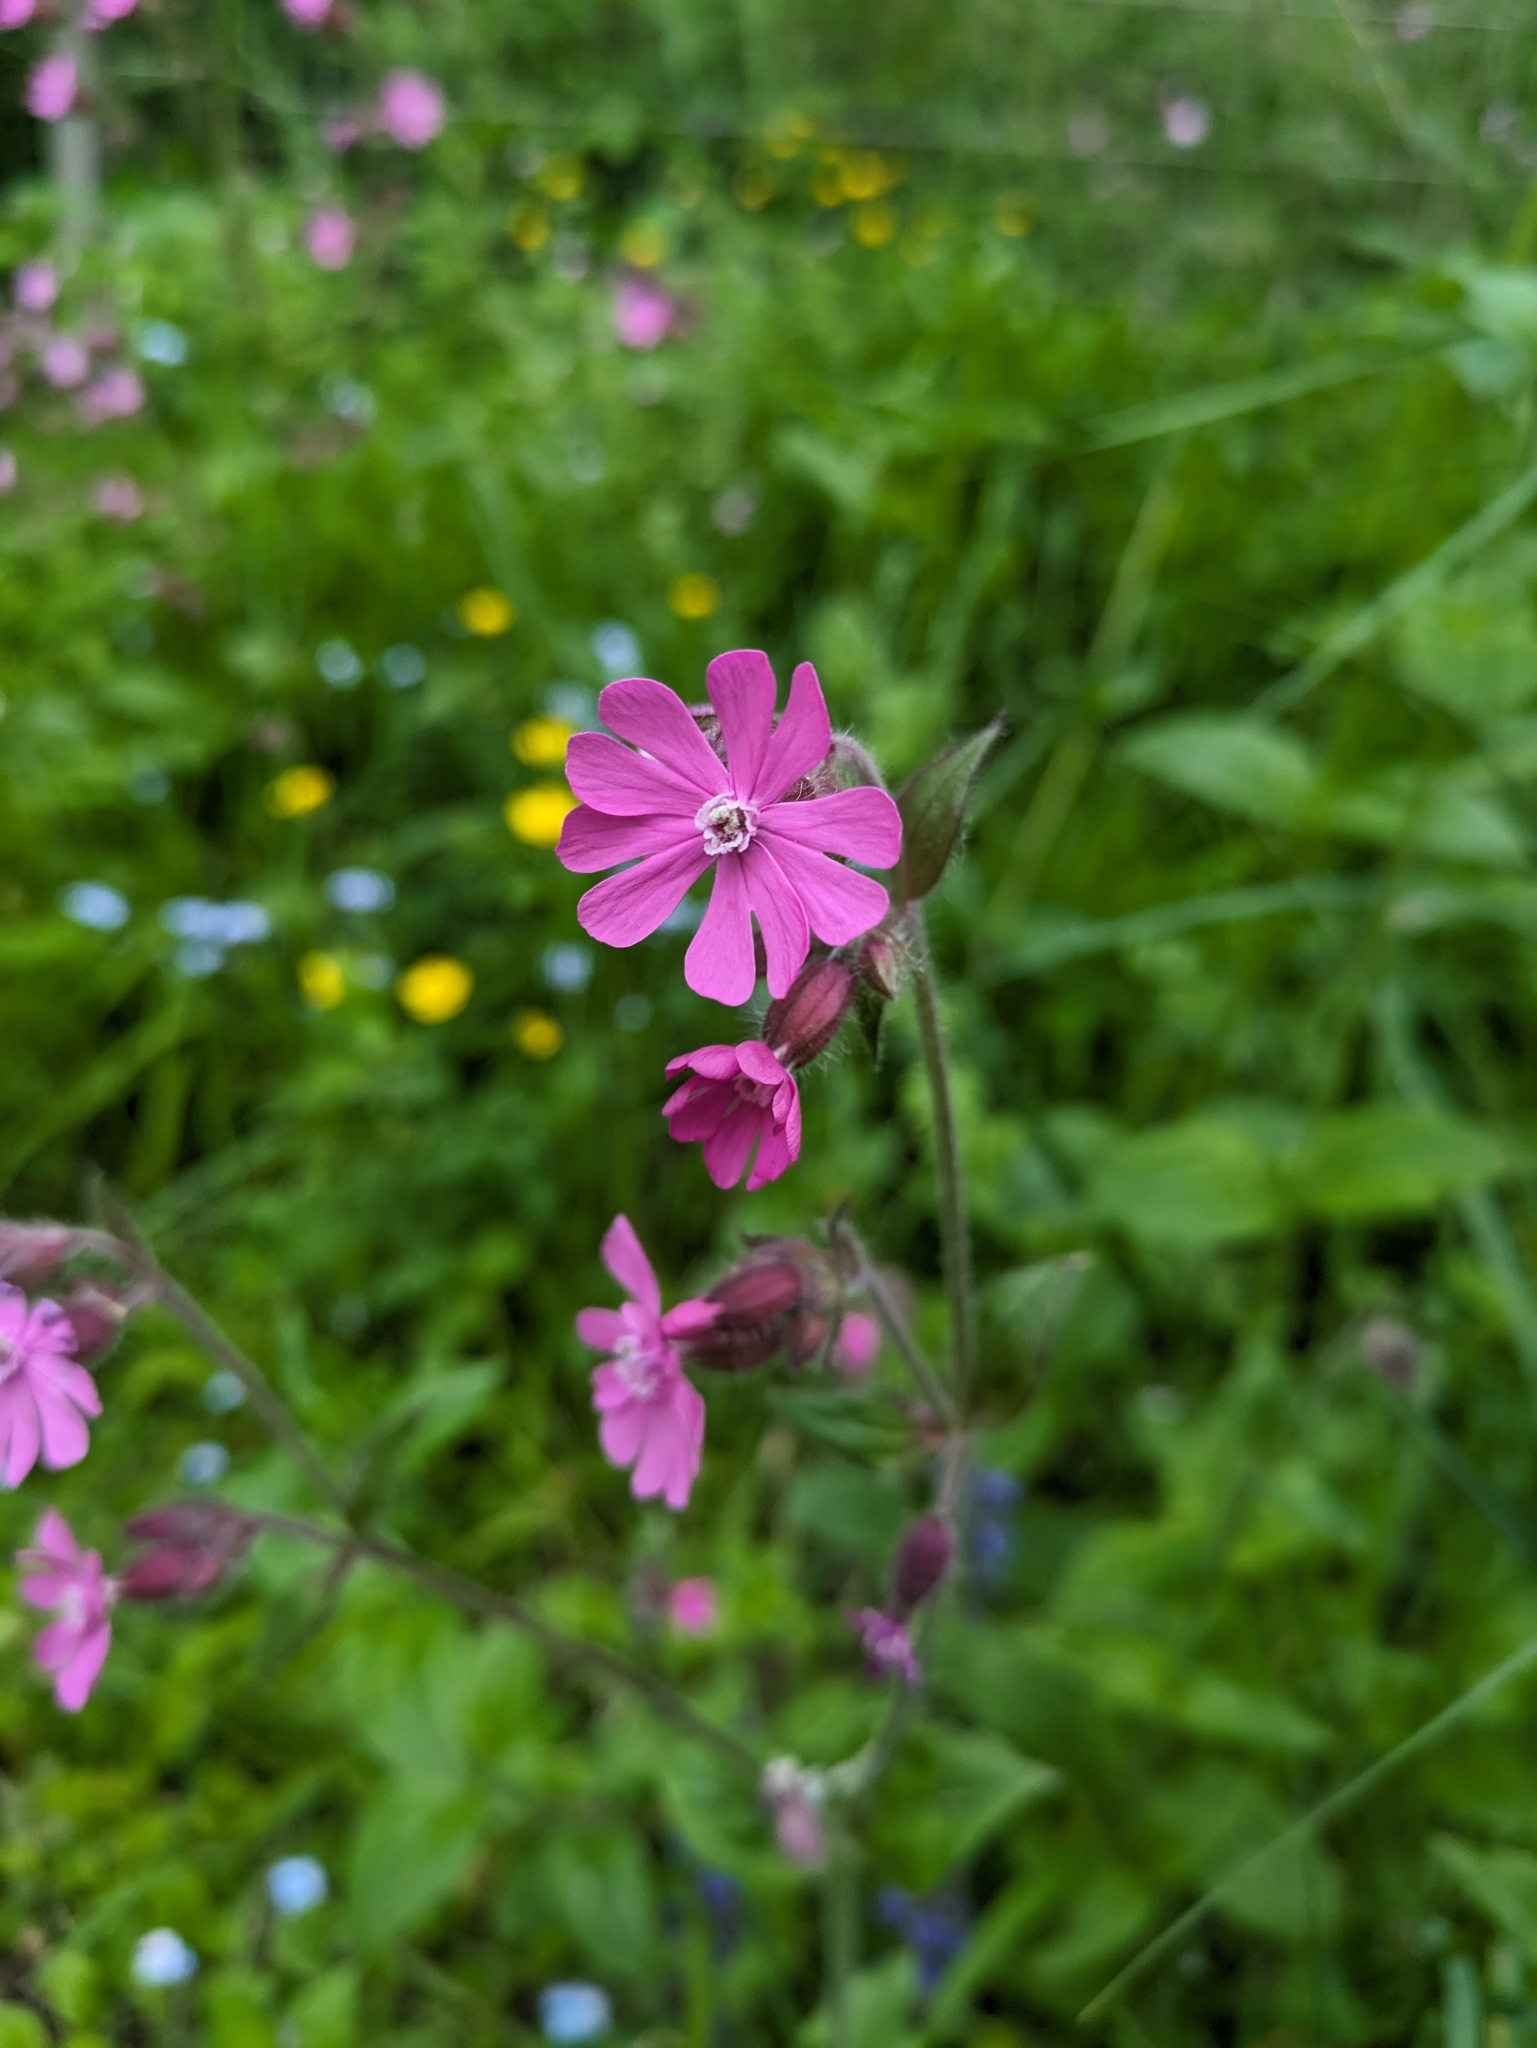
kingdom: Plantae
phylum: Tracheophyta
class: Magnoliopsida
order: Caryophyllales
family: Caryophyllaceae
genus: Silene
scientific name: Silene dioica
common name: Red campion
